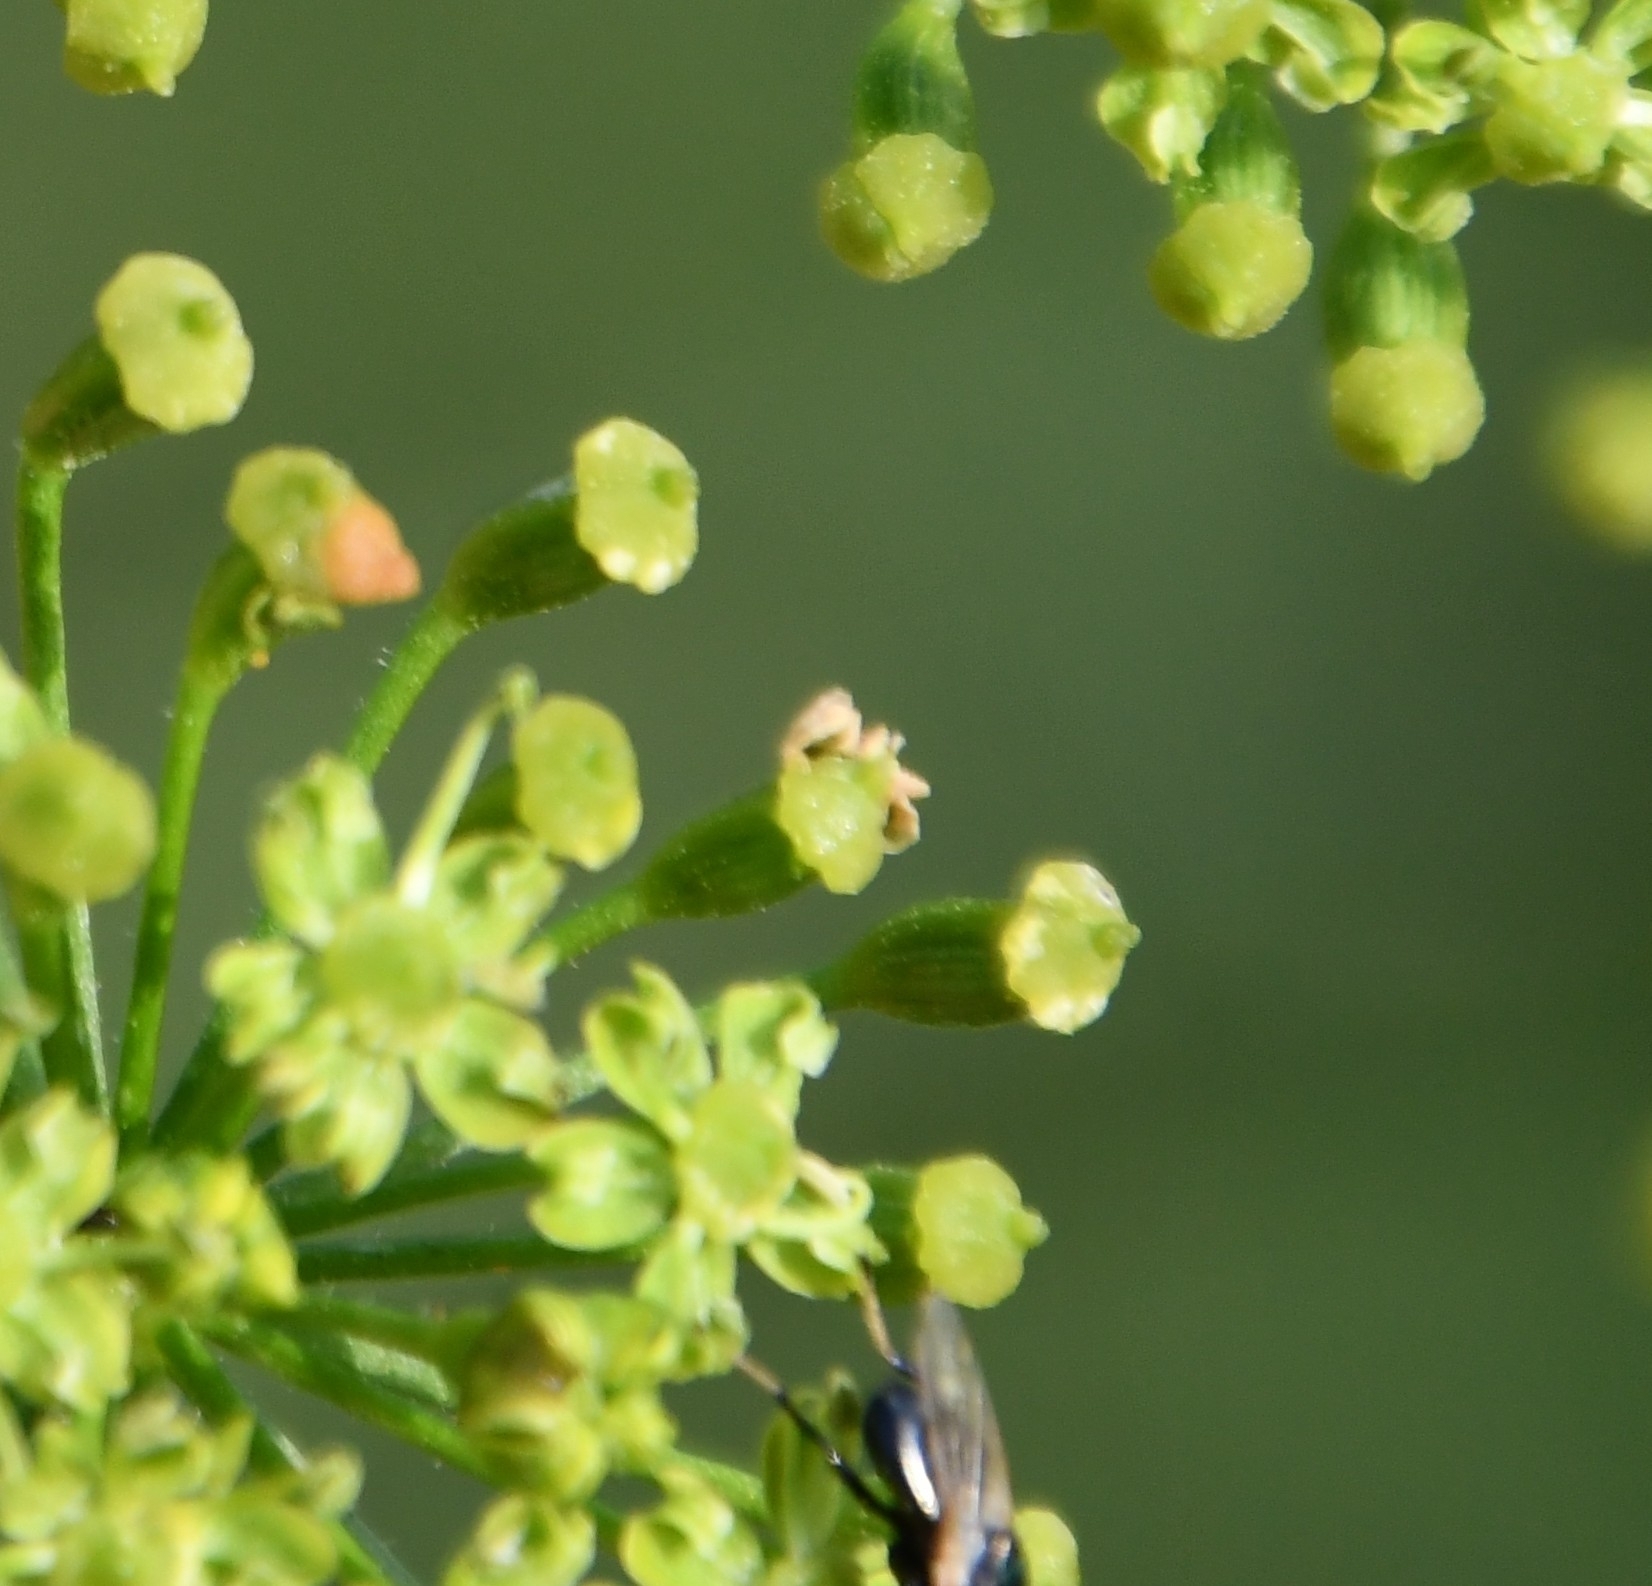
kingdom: Animalia
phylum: Arthropoda
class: Insecta
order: Diptera
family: Ulidiidae
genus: Physiphora
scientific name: Physiphora alceae
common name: Picture-winged fly
